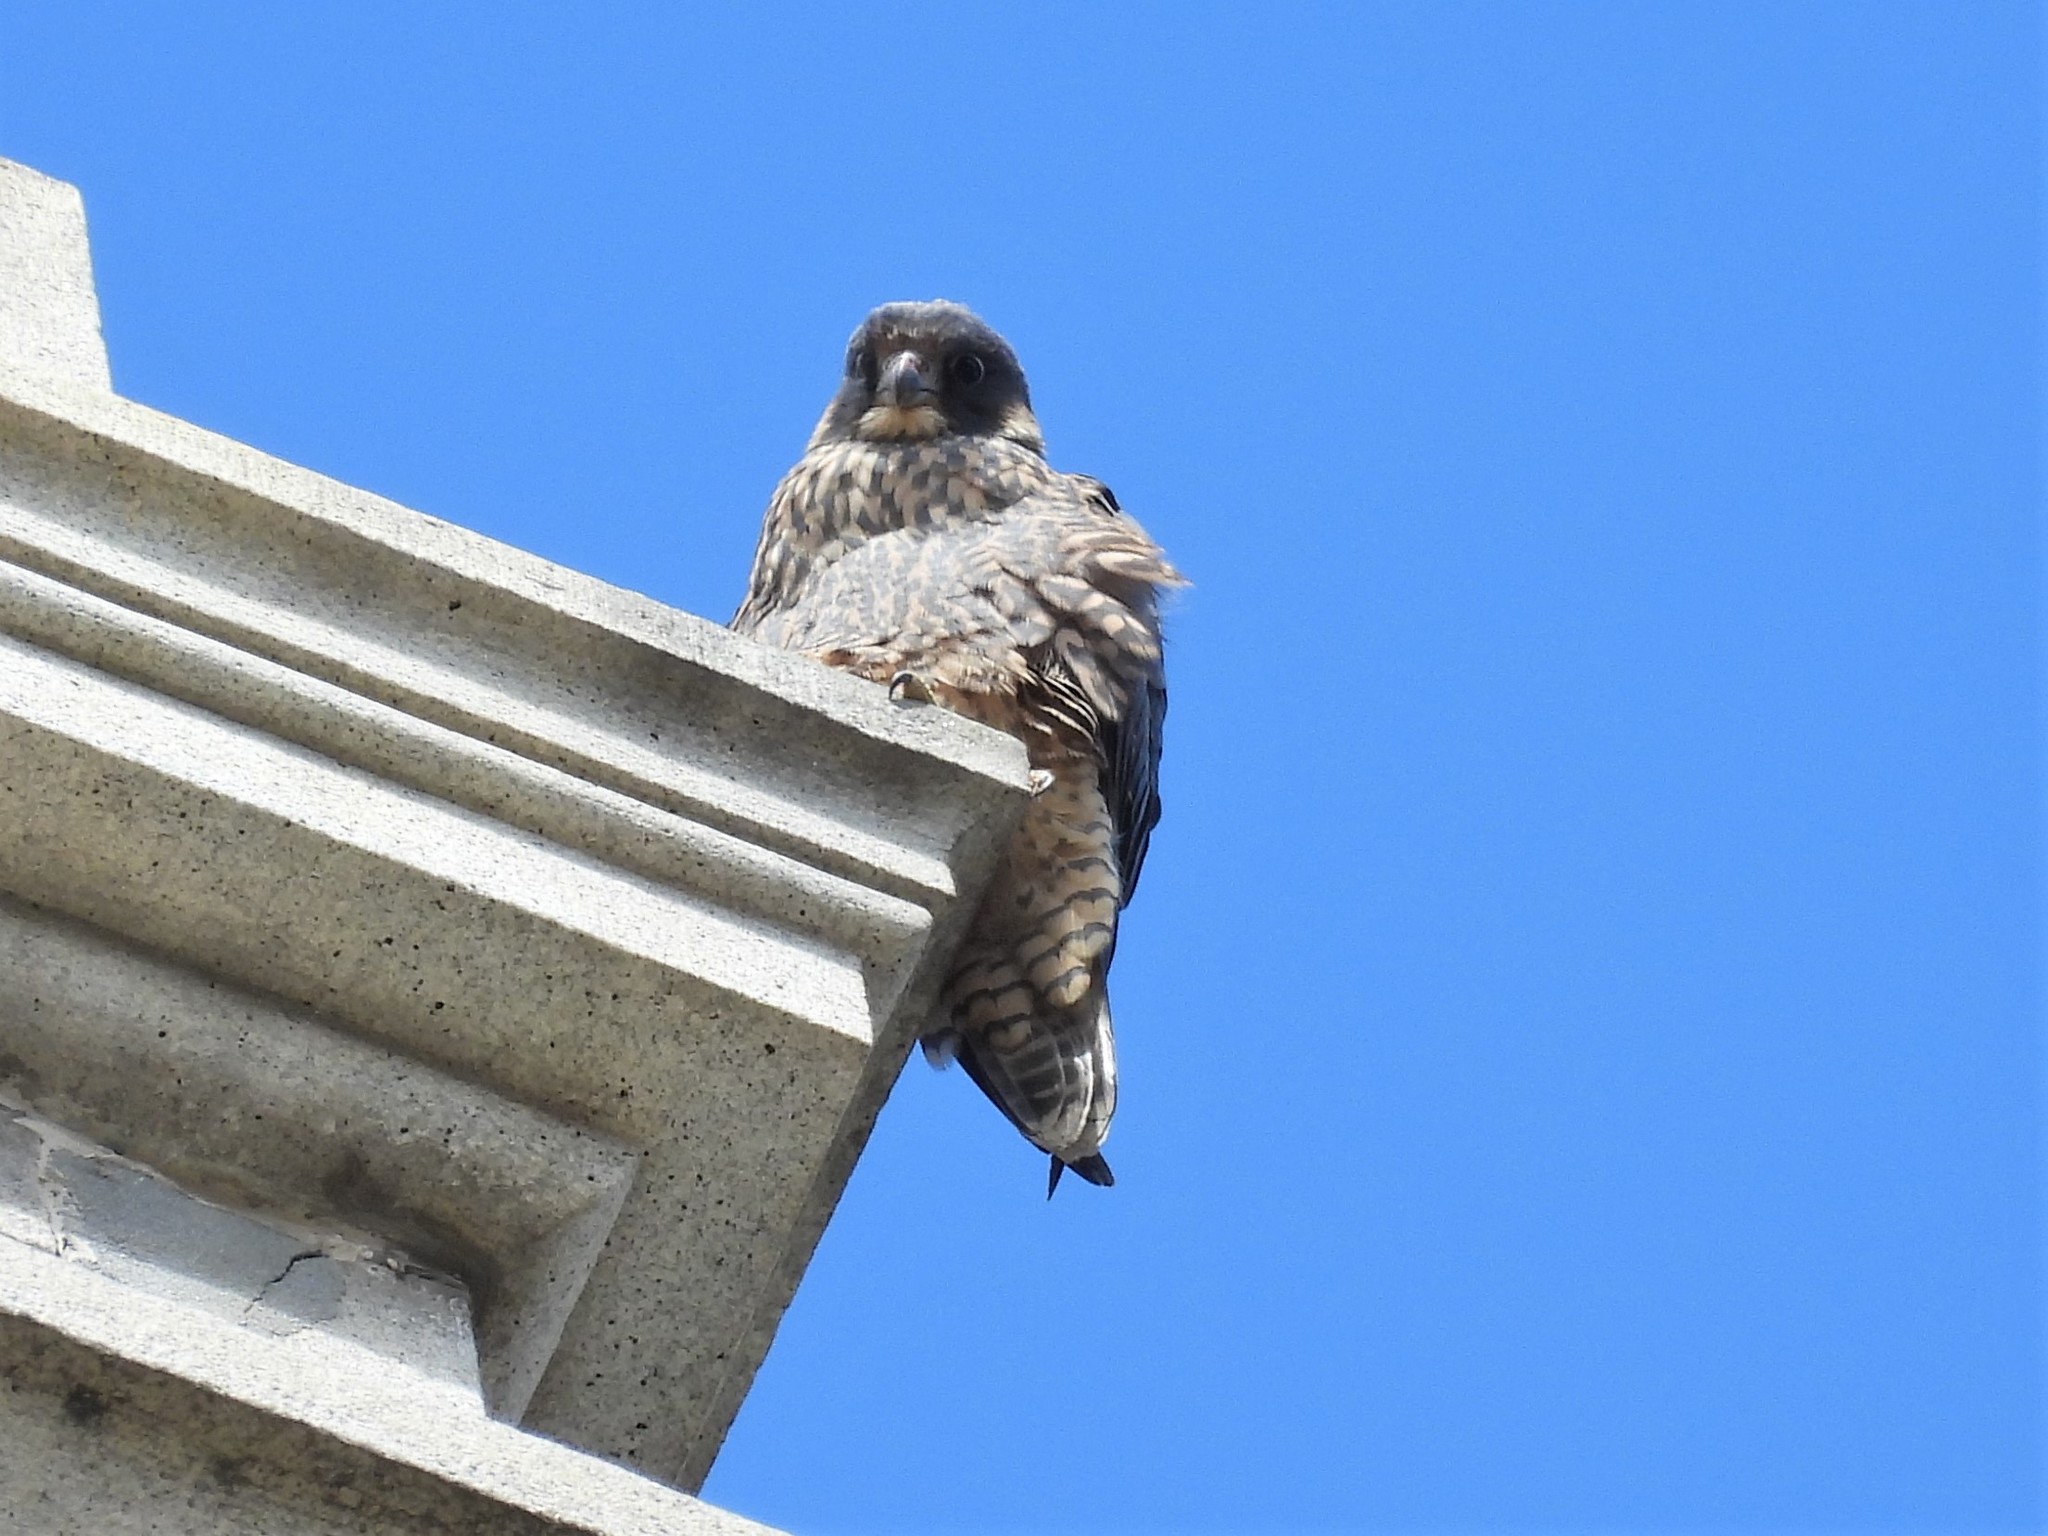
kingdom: Animalia
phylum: Chordata
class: Aves
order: Falconiformes
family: Falconidae
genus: Falco
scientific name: Falco peregrinus
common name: Peregrine falcon
